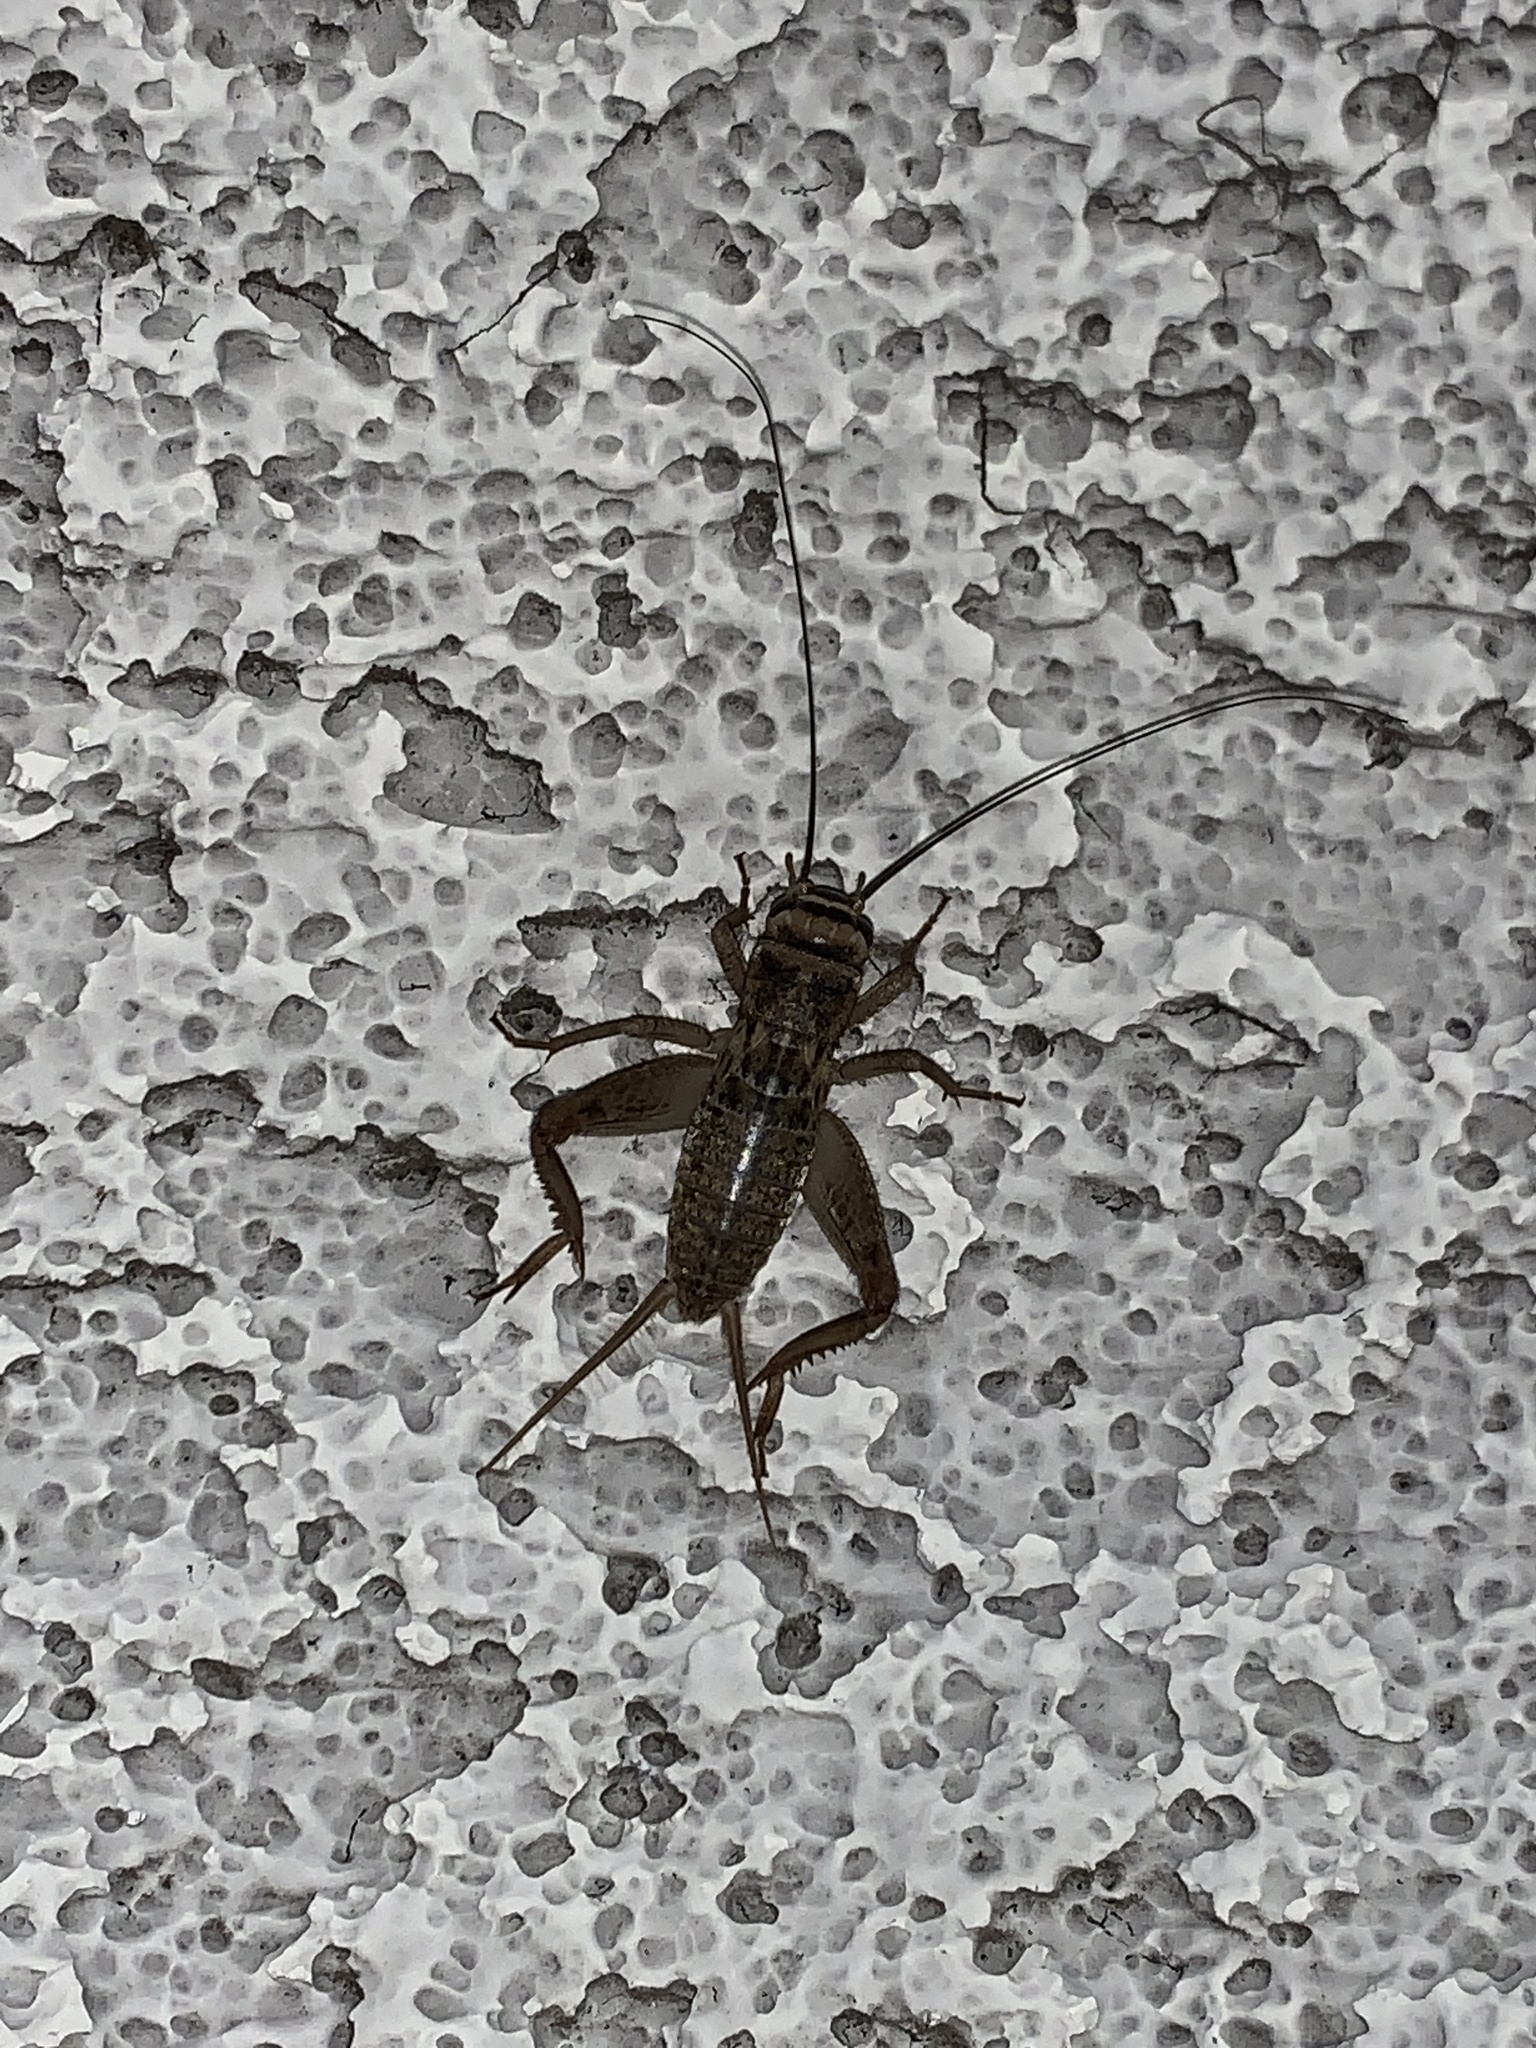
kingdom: Animalia
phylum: Arthropoda
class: Insecta
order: Orthoptera
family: Gryllidae
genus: Acheta
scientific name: Acheta domesticus
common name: House cricket
